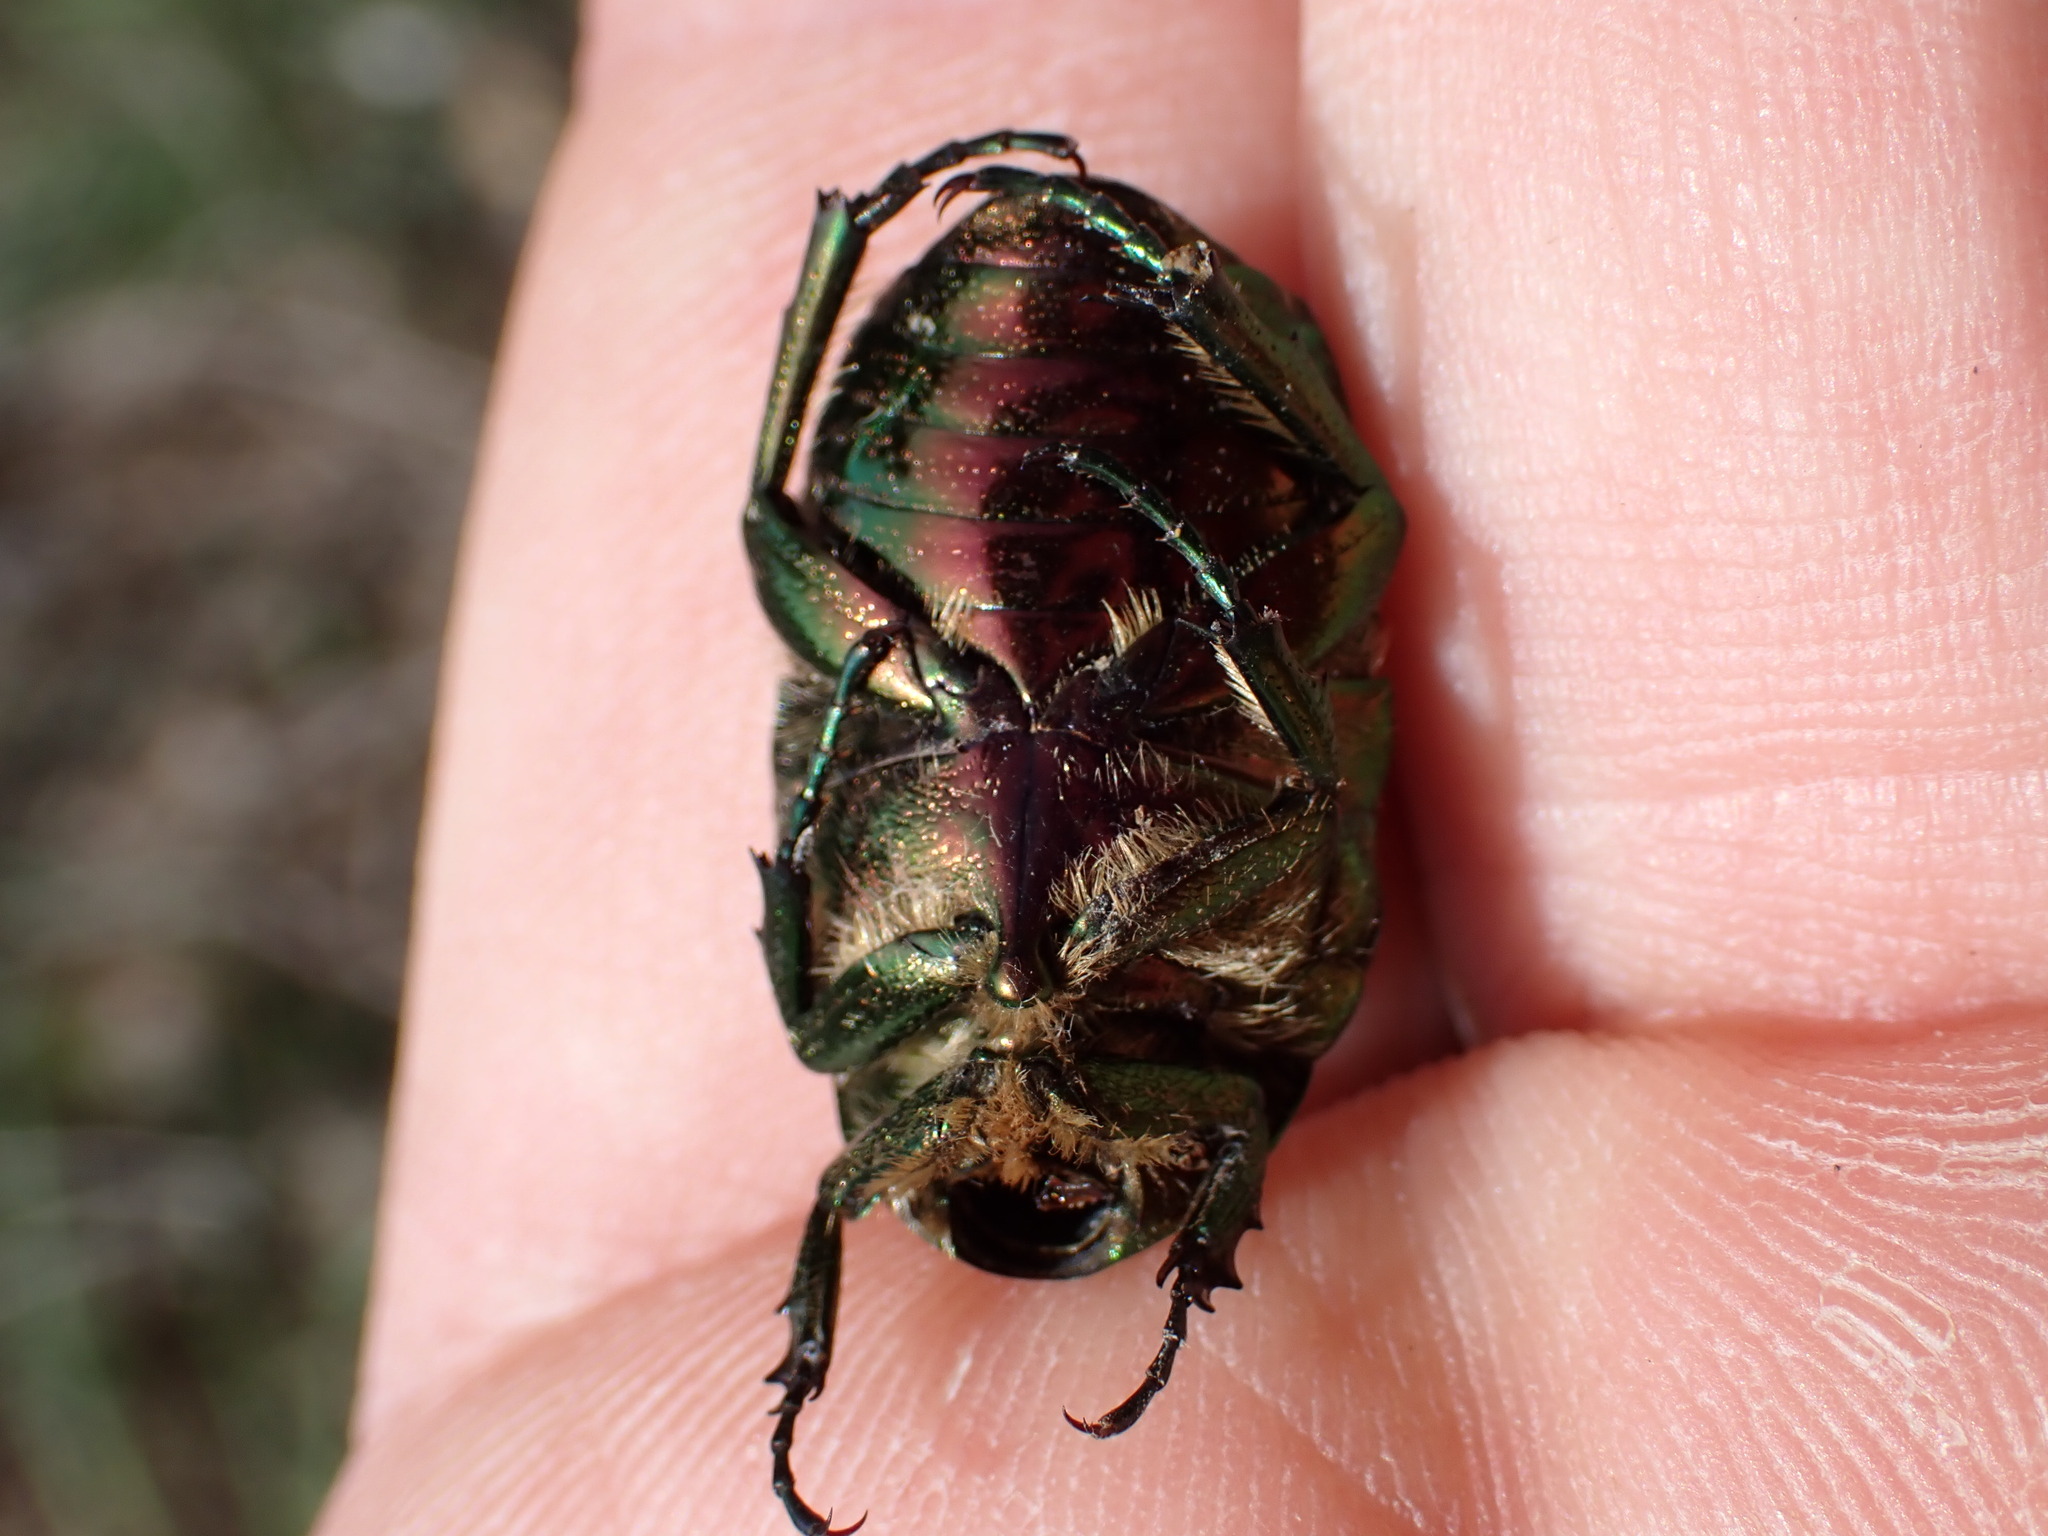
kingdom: Animalia
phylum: Arthropoda
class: Insecta
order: Coleoptera
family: Scarabaeidae
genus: Cetonia
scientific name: Cetonia aurata
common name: Rose chafer
